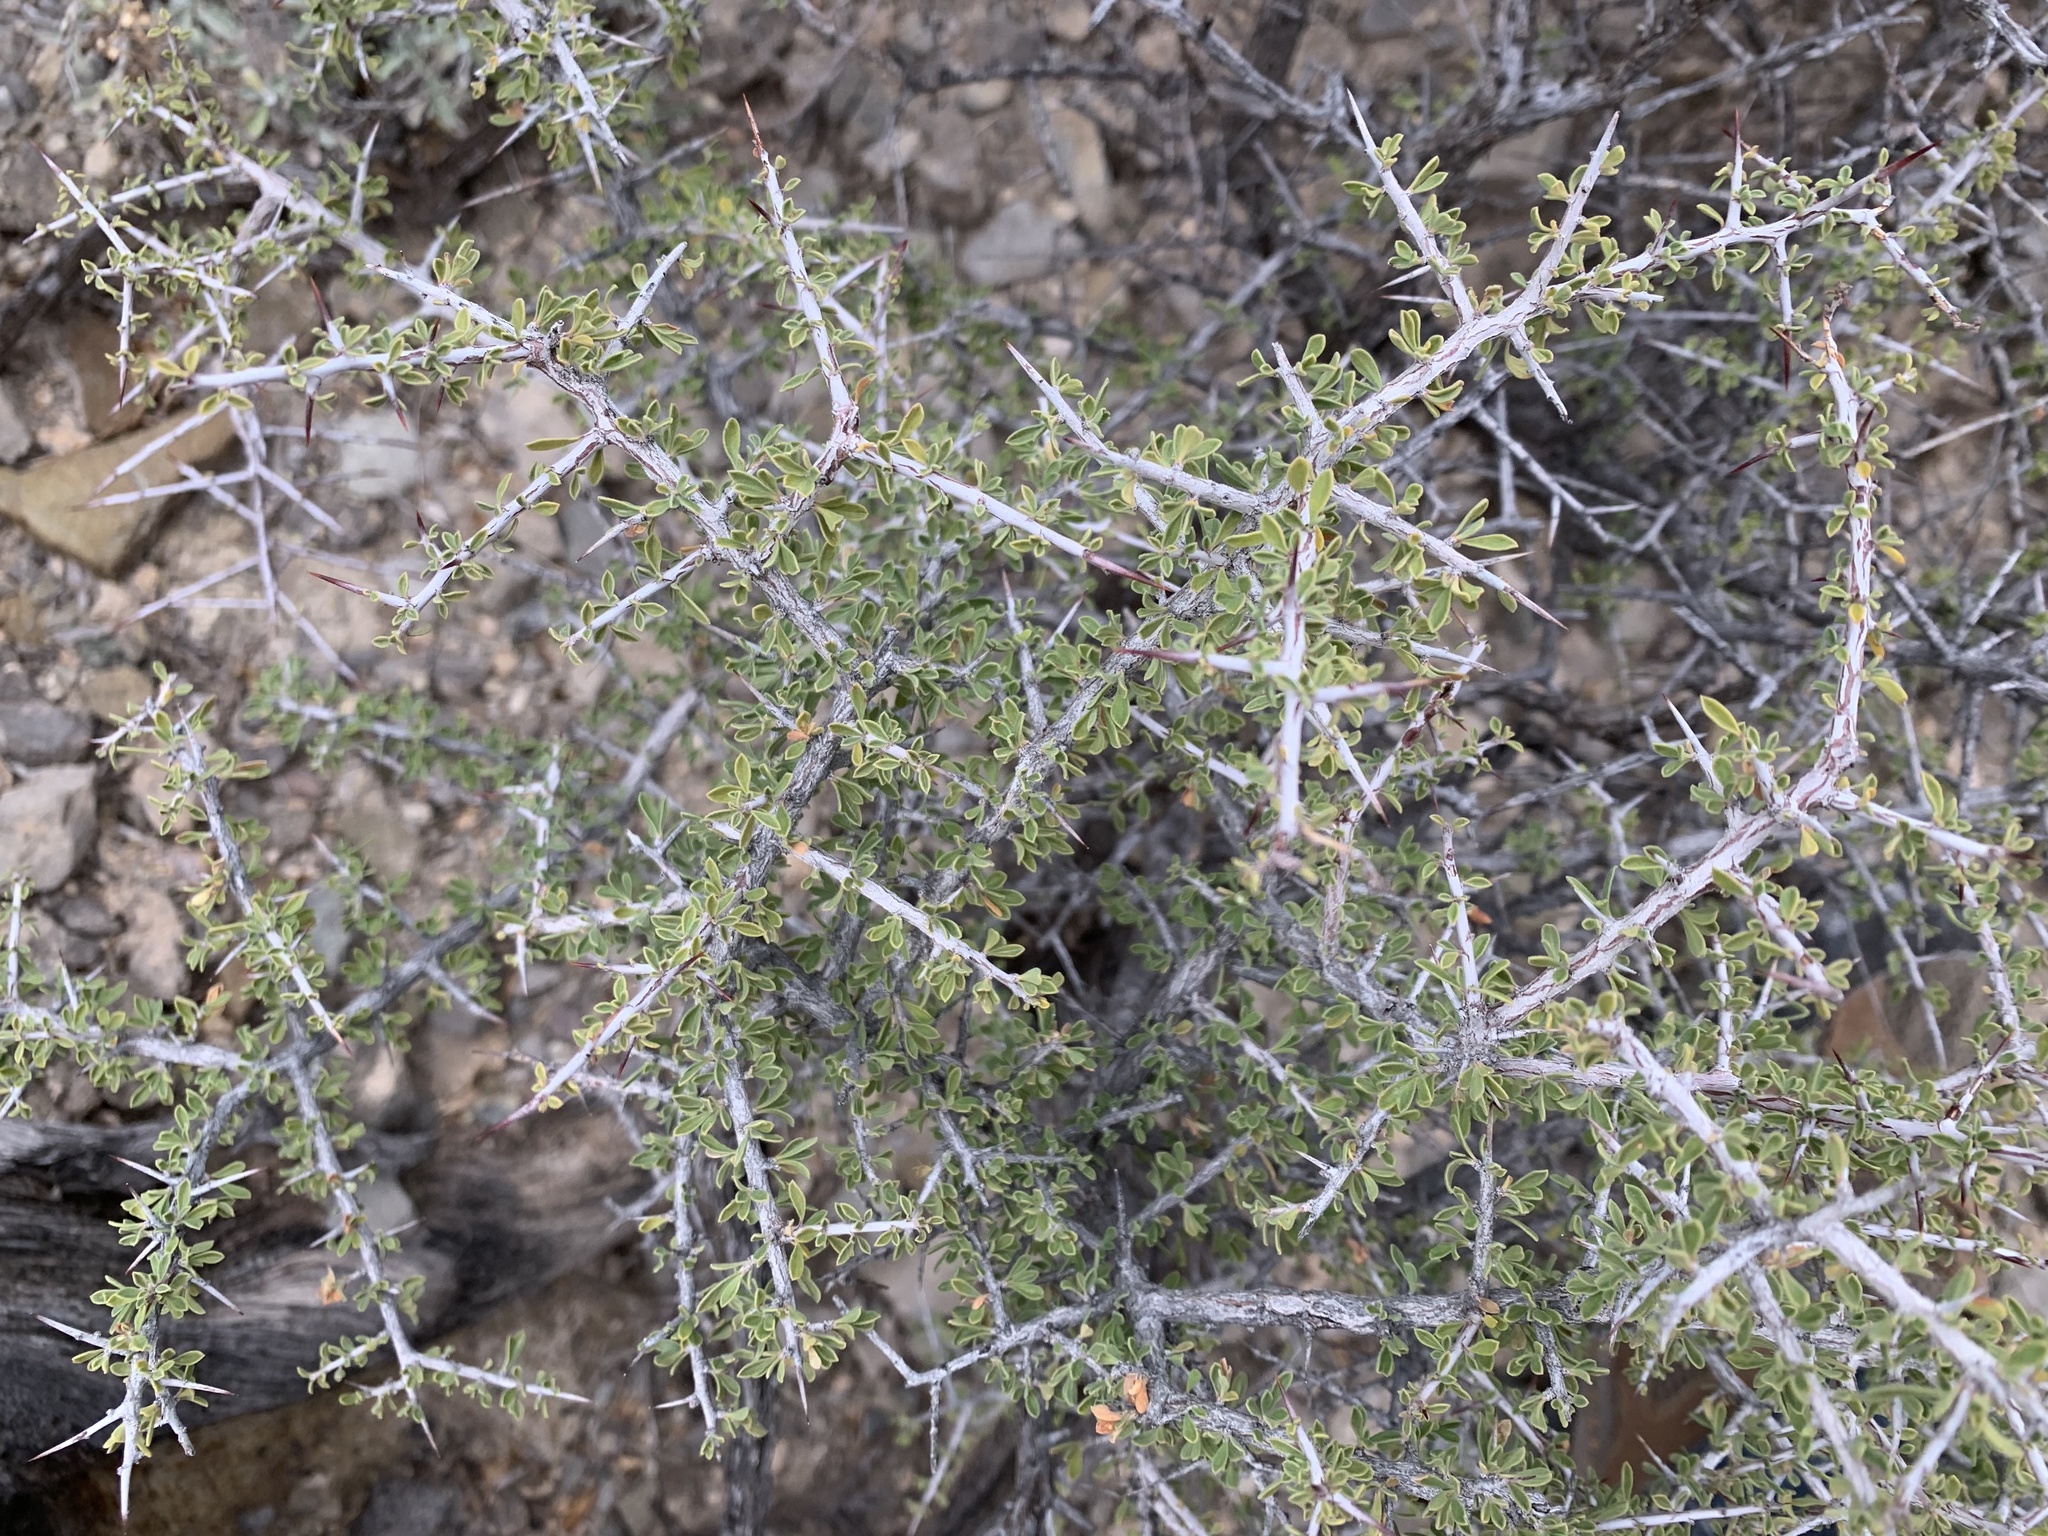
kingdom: Plantae
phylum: Tracheophyta
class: Magnoliopsida
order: Rosales
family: Rhamnaceae
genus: Condalia
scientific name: Condalia warnockii
